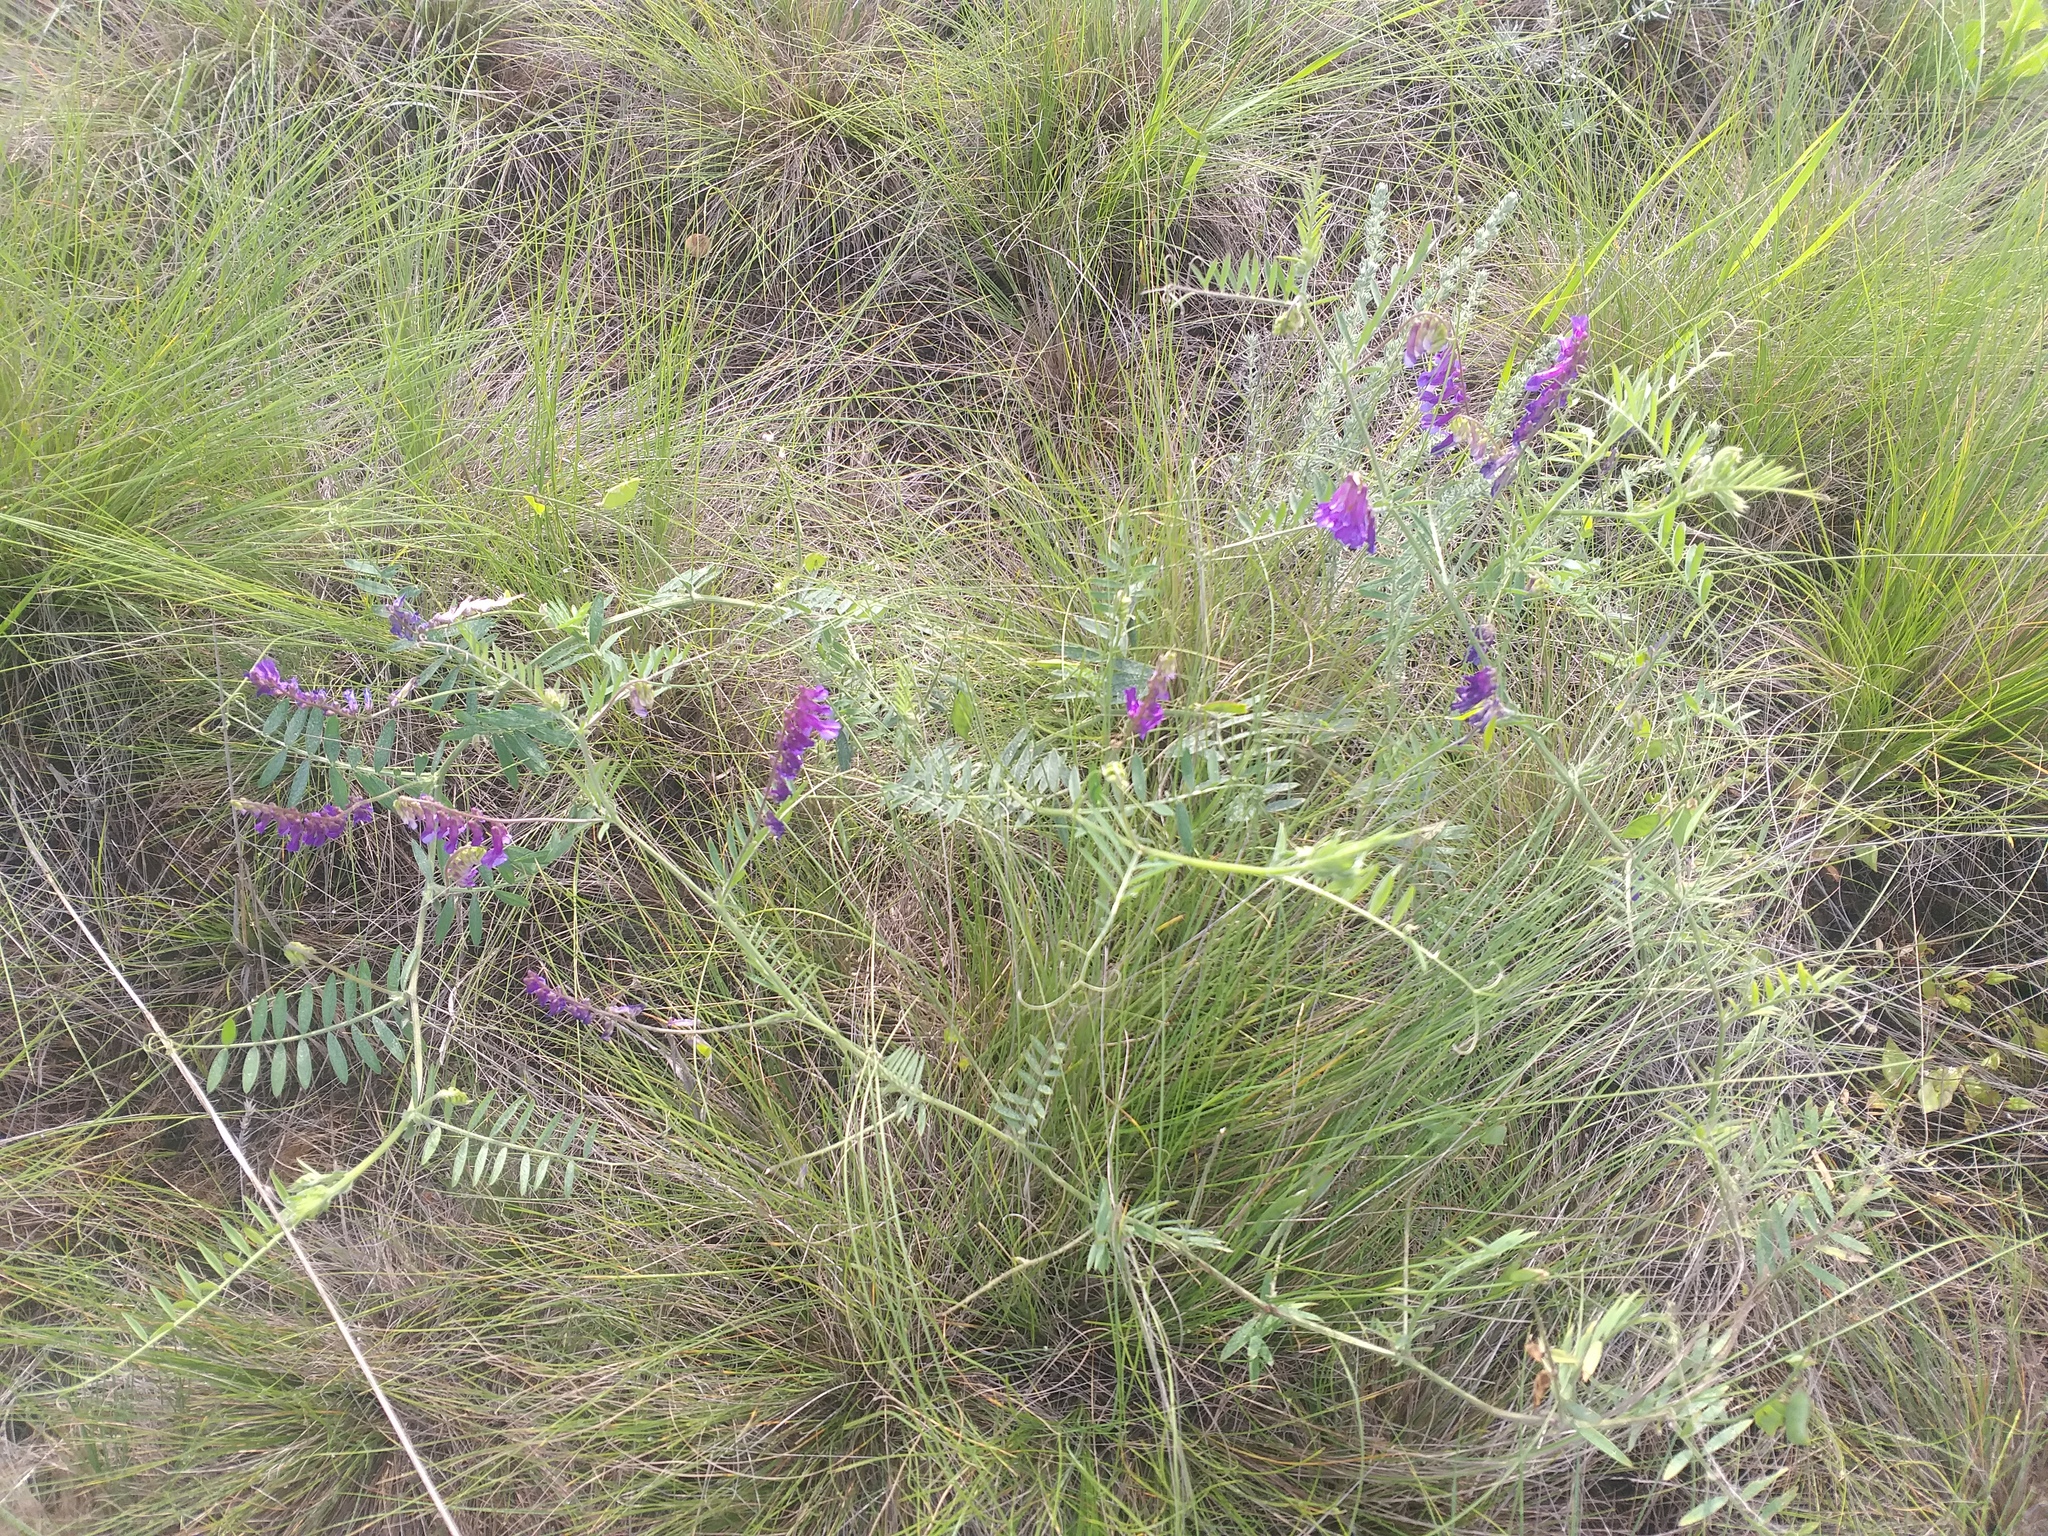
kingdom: Plantae
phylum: Tracheophyta
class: Magnoliopsida
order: Fabales
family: Fabaceae
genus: Vicia
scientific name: Vicia villosa
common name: Fodder vetch
